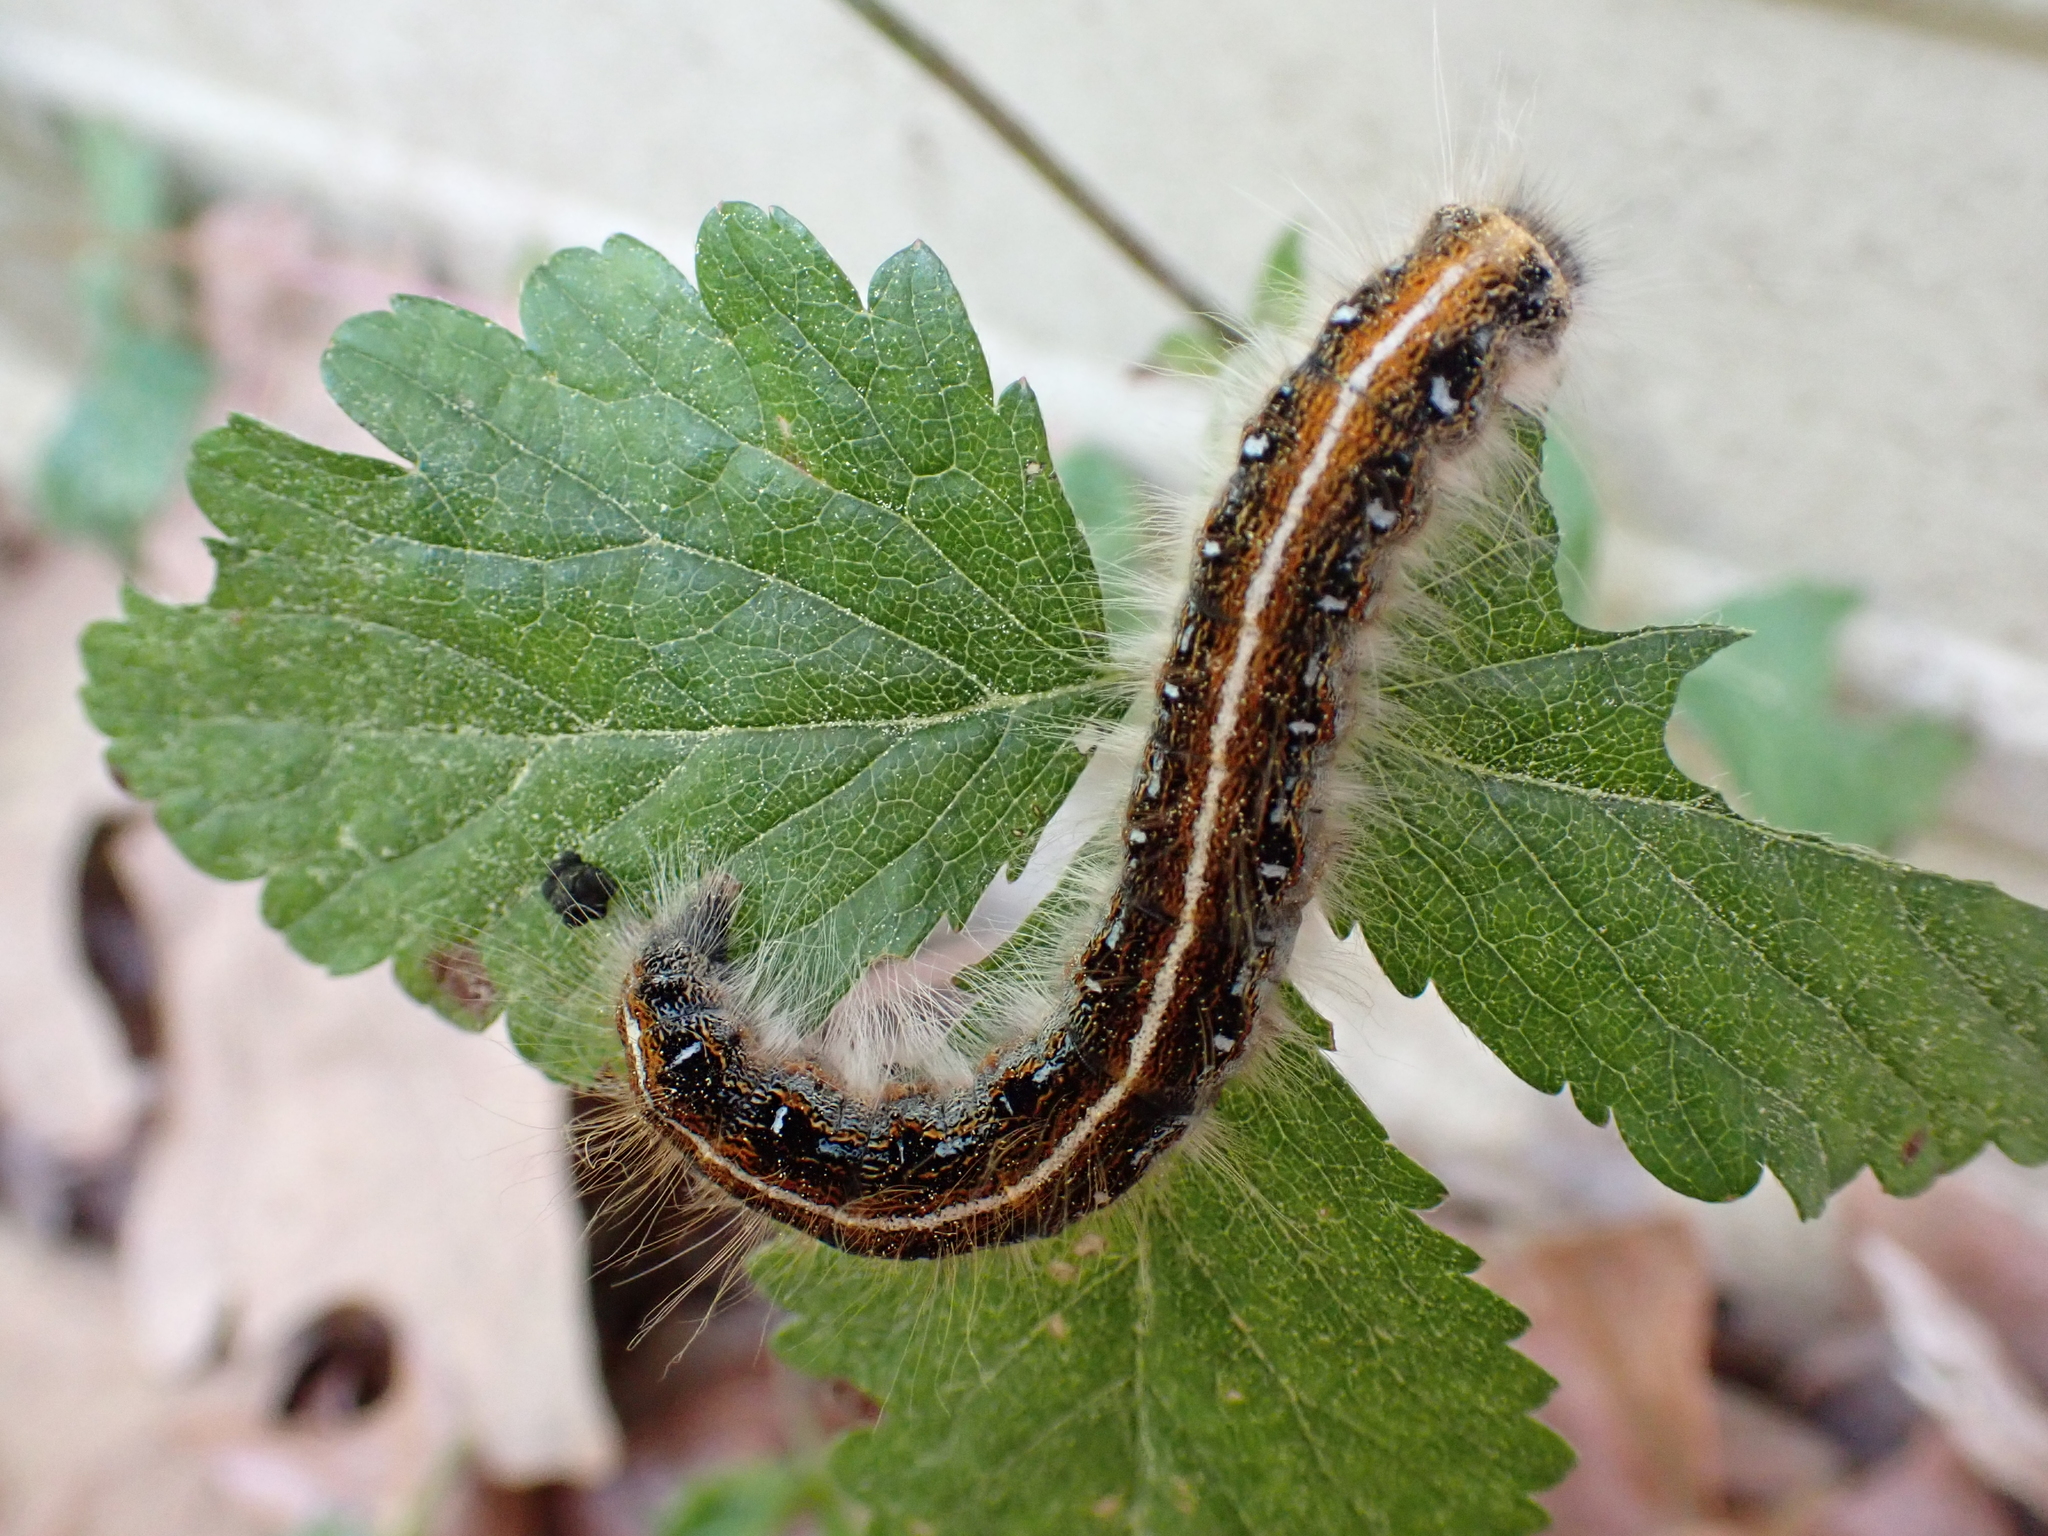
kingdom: Animalia
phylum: Arthropoda
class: Insecta
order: Lepidoptera
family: Lasiocampidae
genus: Malacosoma
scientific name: Malacosoma americana
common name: Eastern tent caterpillar moth
